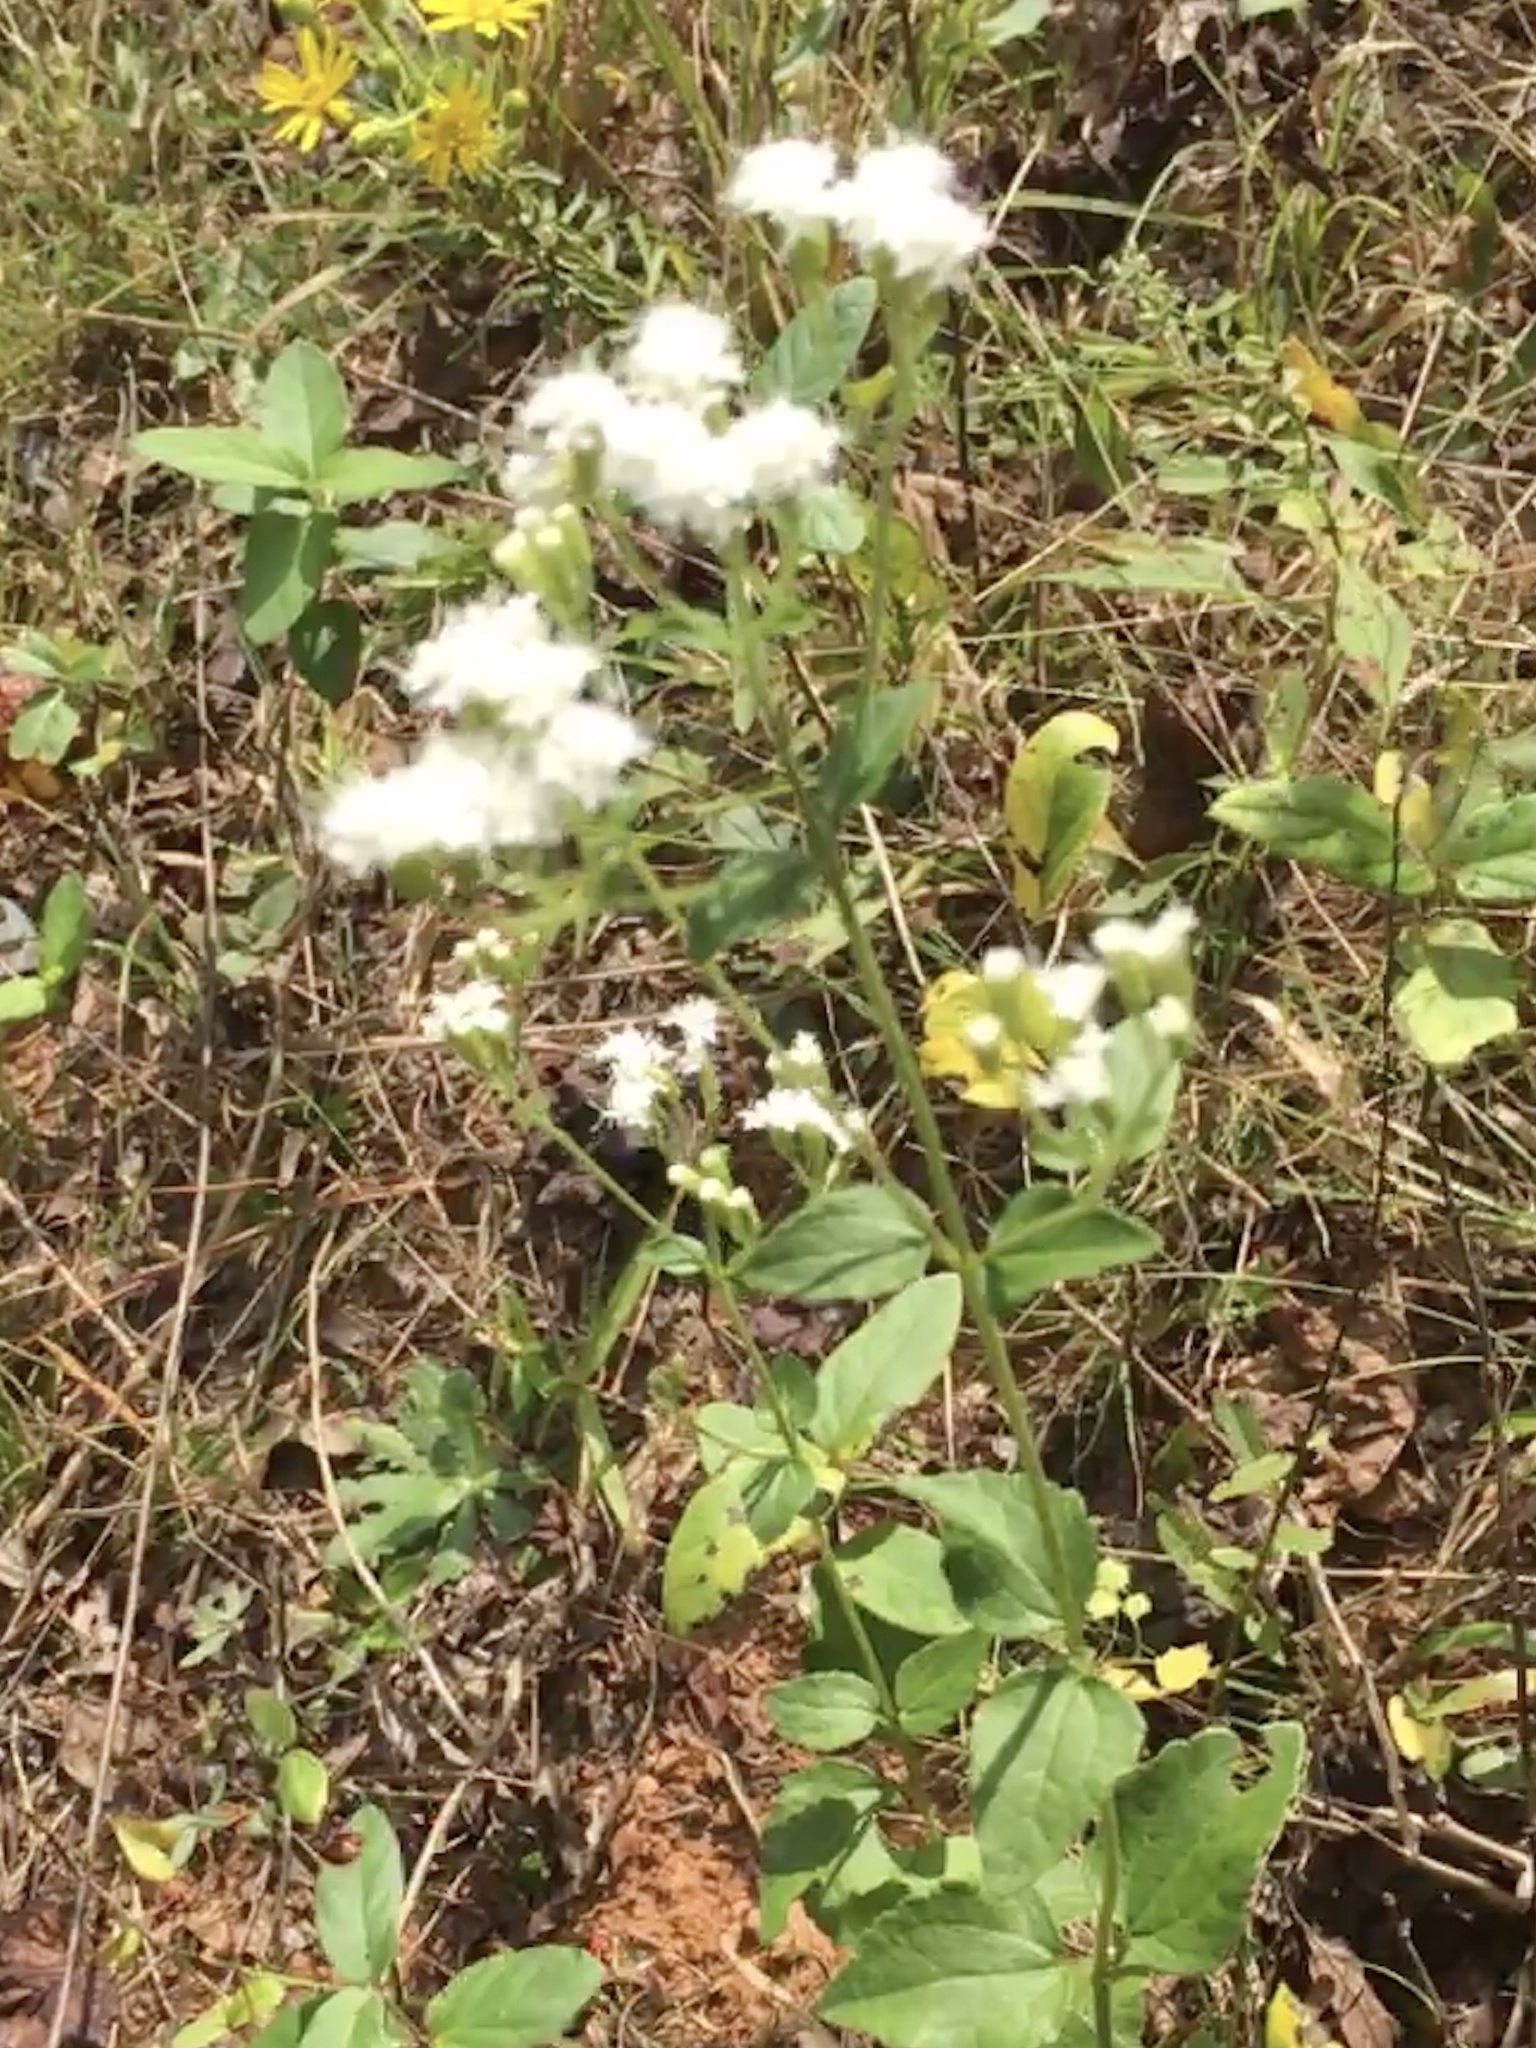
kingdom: Plantae
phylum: Tracheophyta
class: Magnoliopsida
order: Asterales
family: Asteraceae
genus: Ageratina
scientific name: Ageratina aromatica
